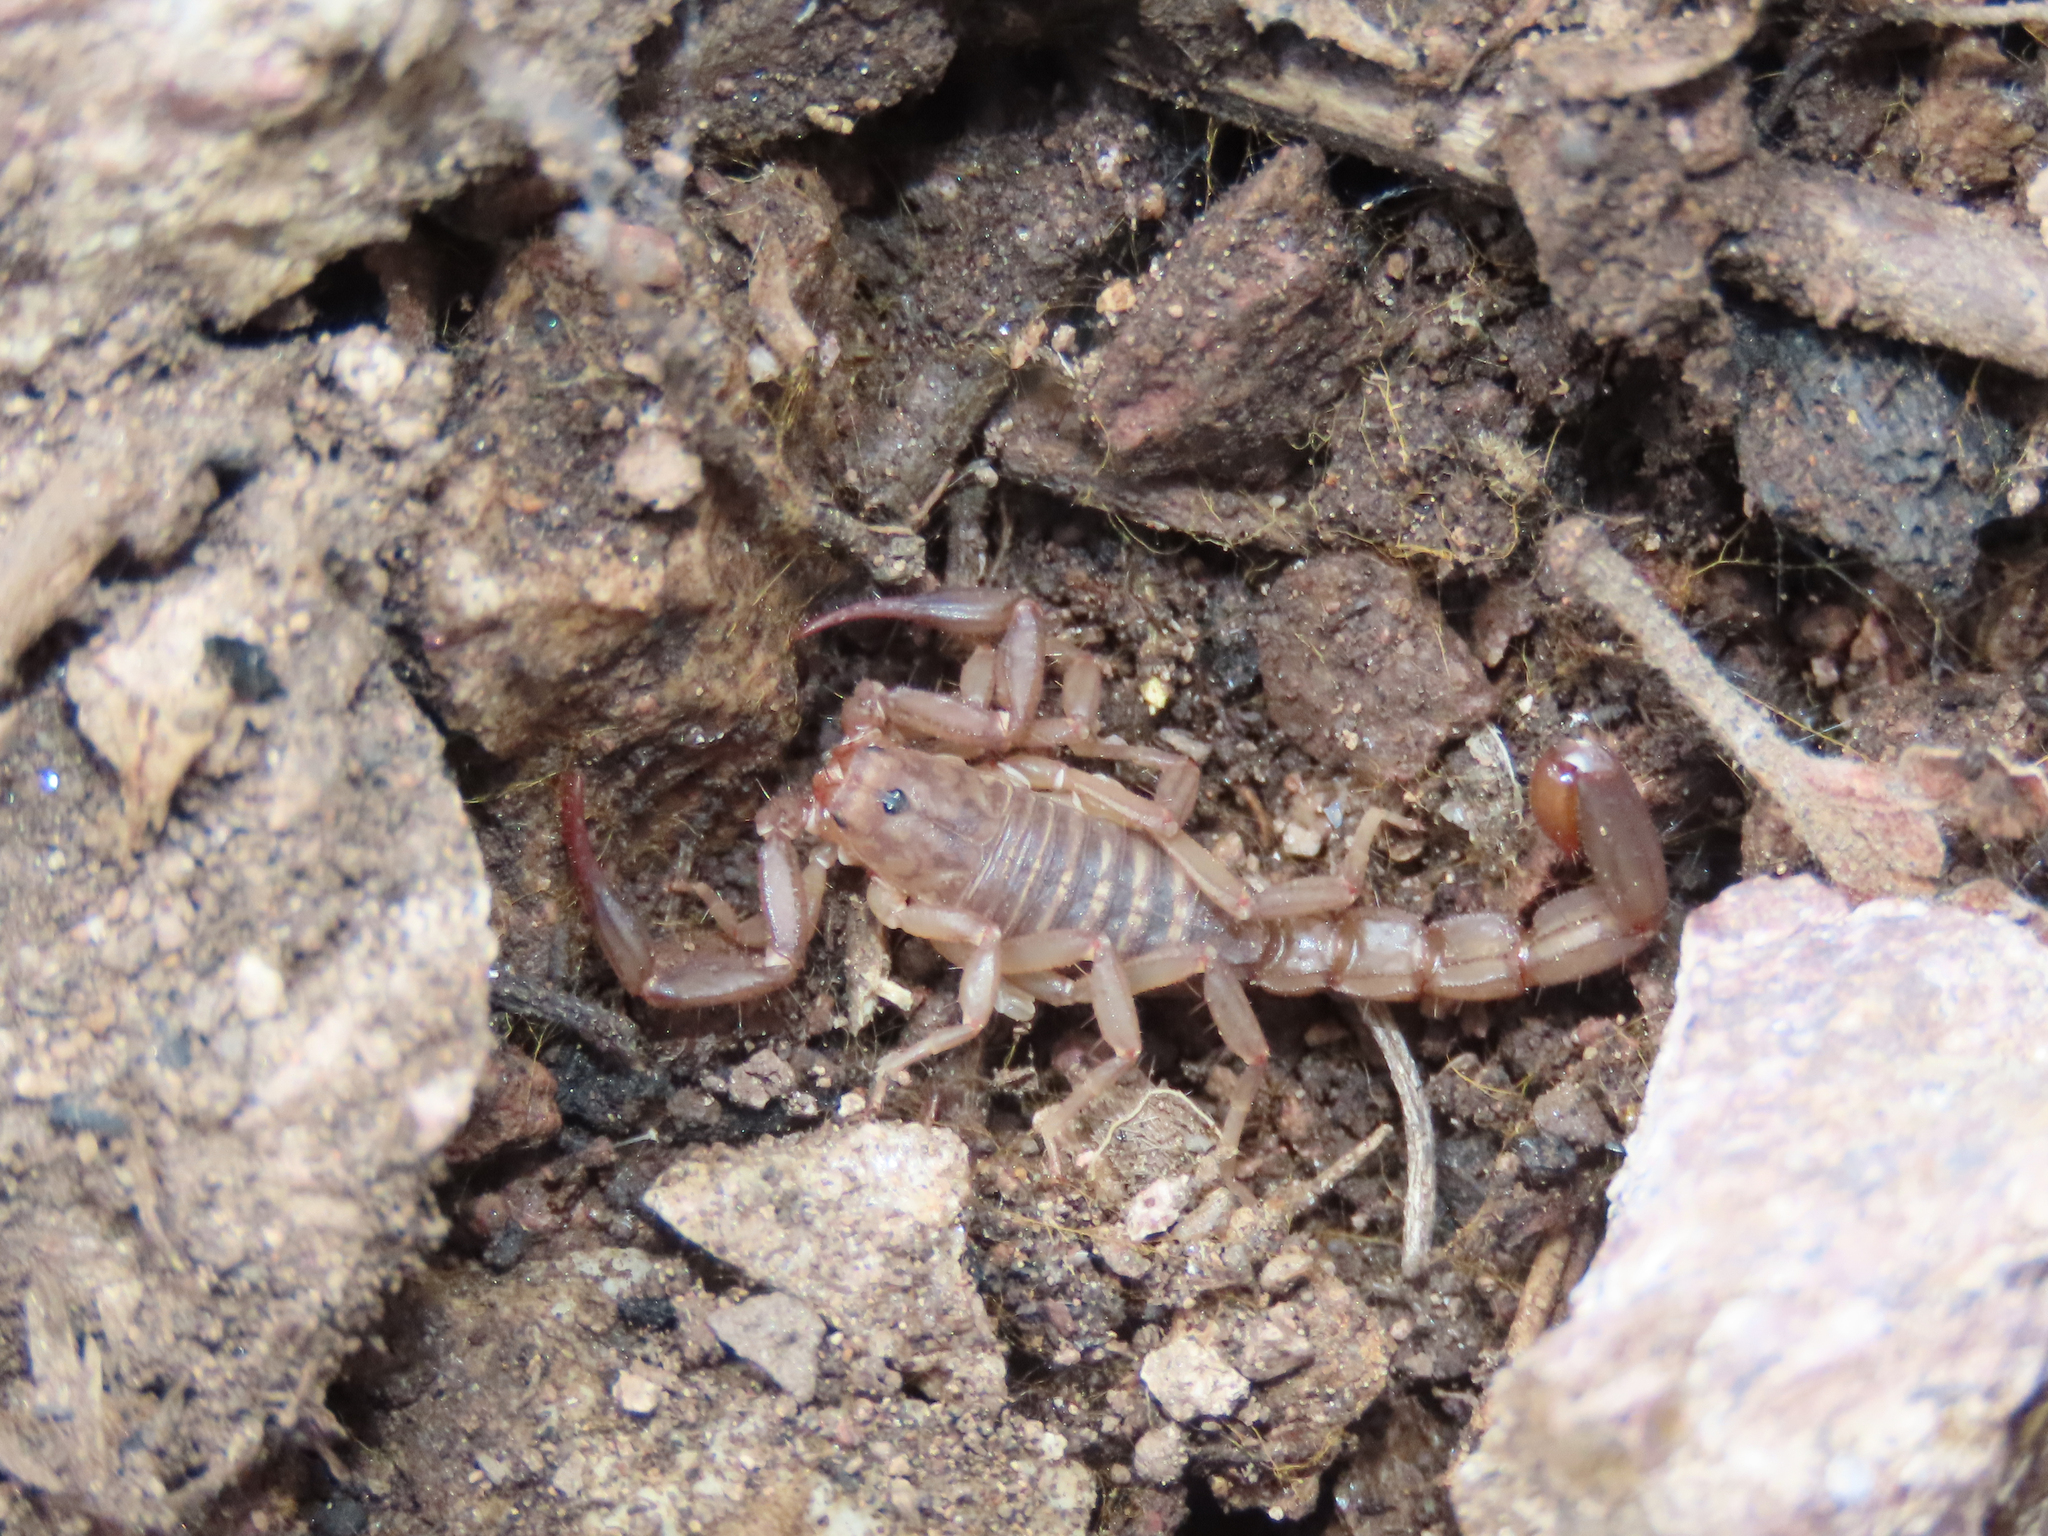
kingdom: Animalia
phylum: Arthropoda
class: Arachnida
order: Scorpiones
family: Vaejovidae
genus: Vaejovis
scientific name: Vaejovis vorhiesi
